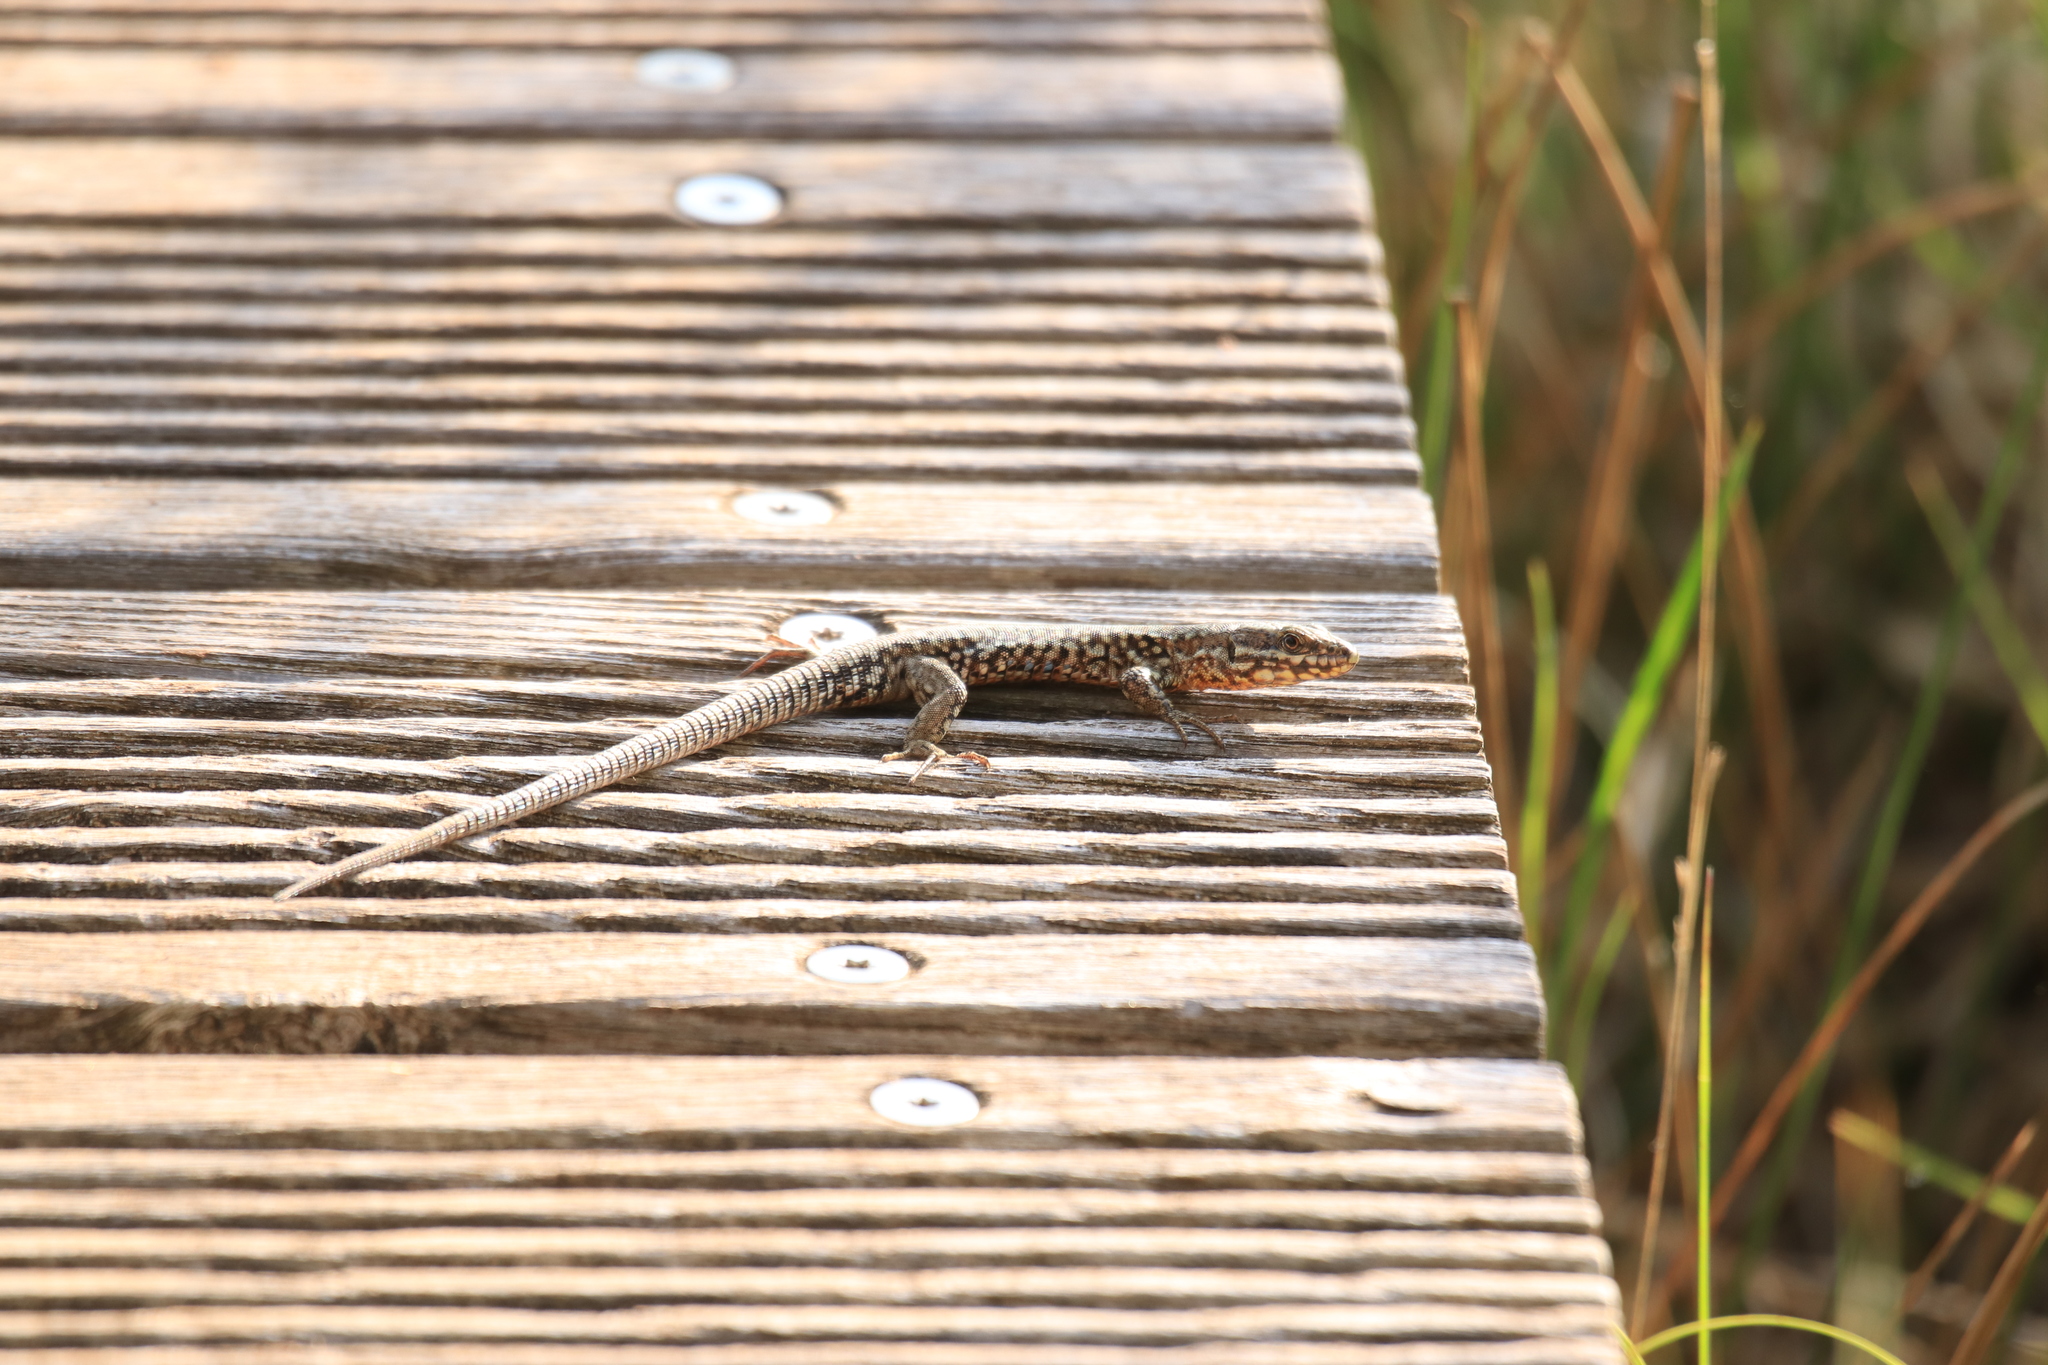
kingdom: Animalia
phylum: Chordata
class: Squamata
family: Lacertidae
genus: Podarcis
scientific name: Podarcis muralis
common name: Common wall lizard
